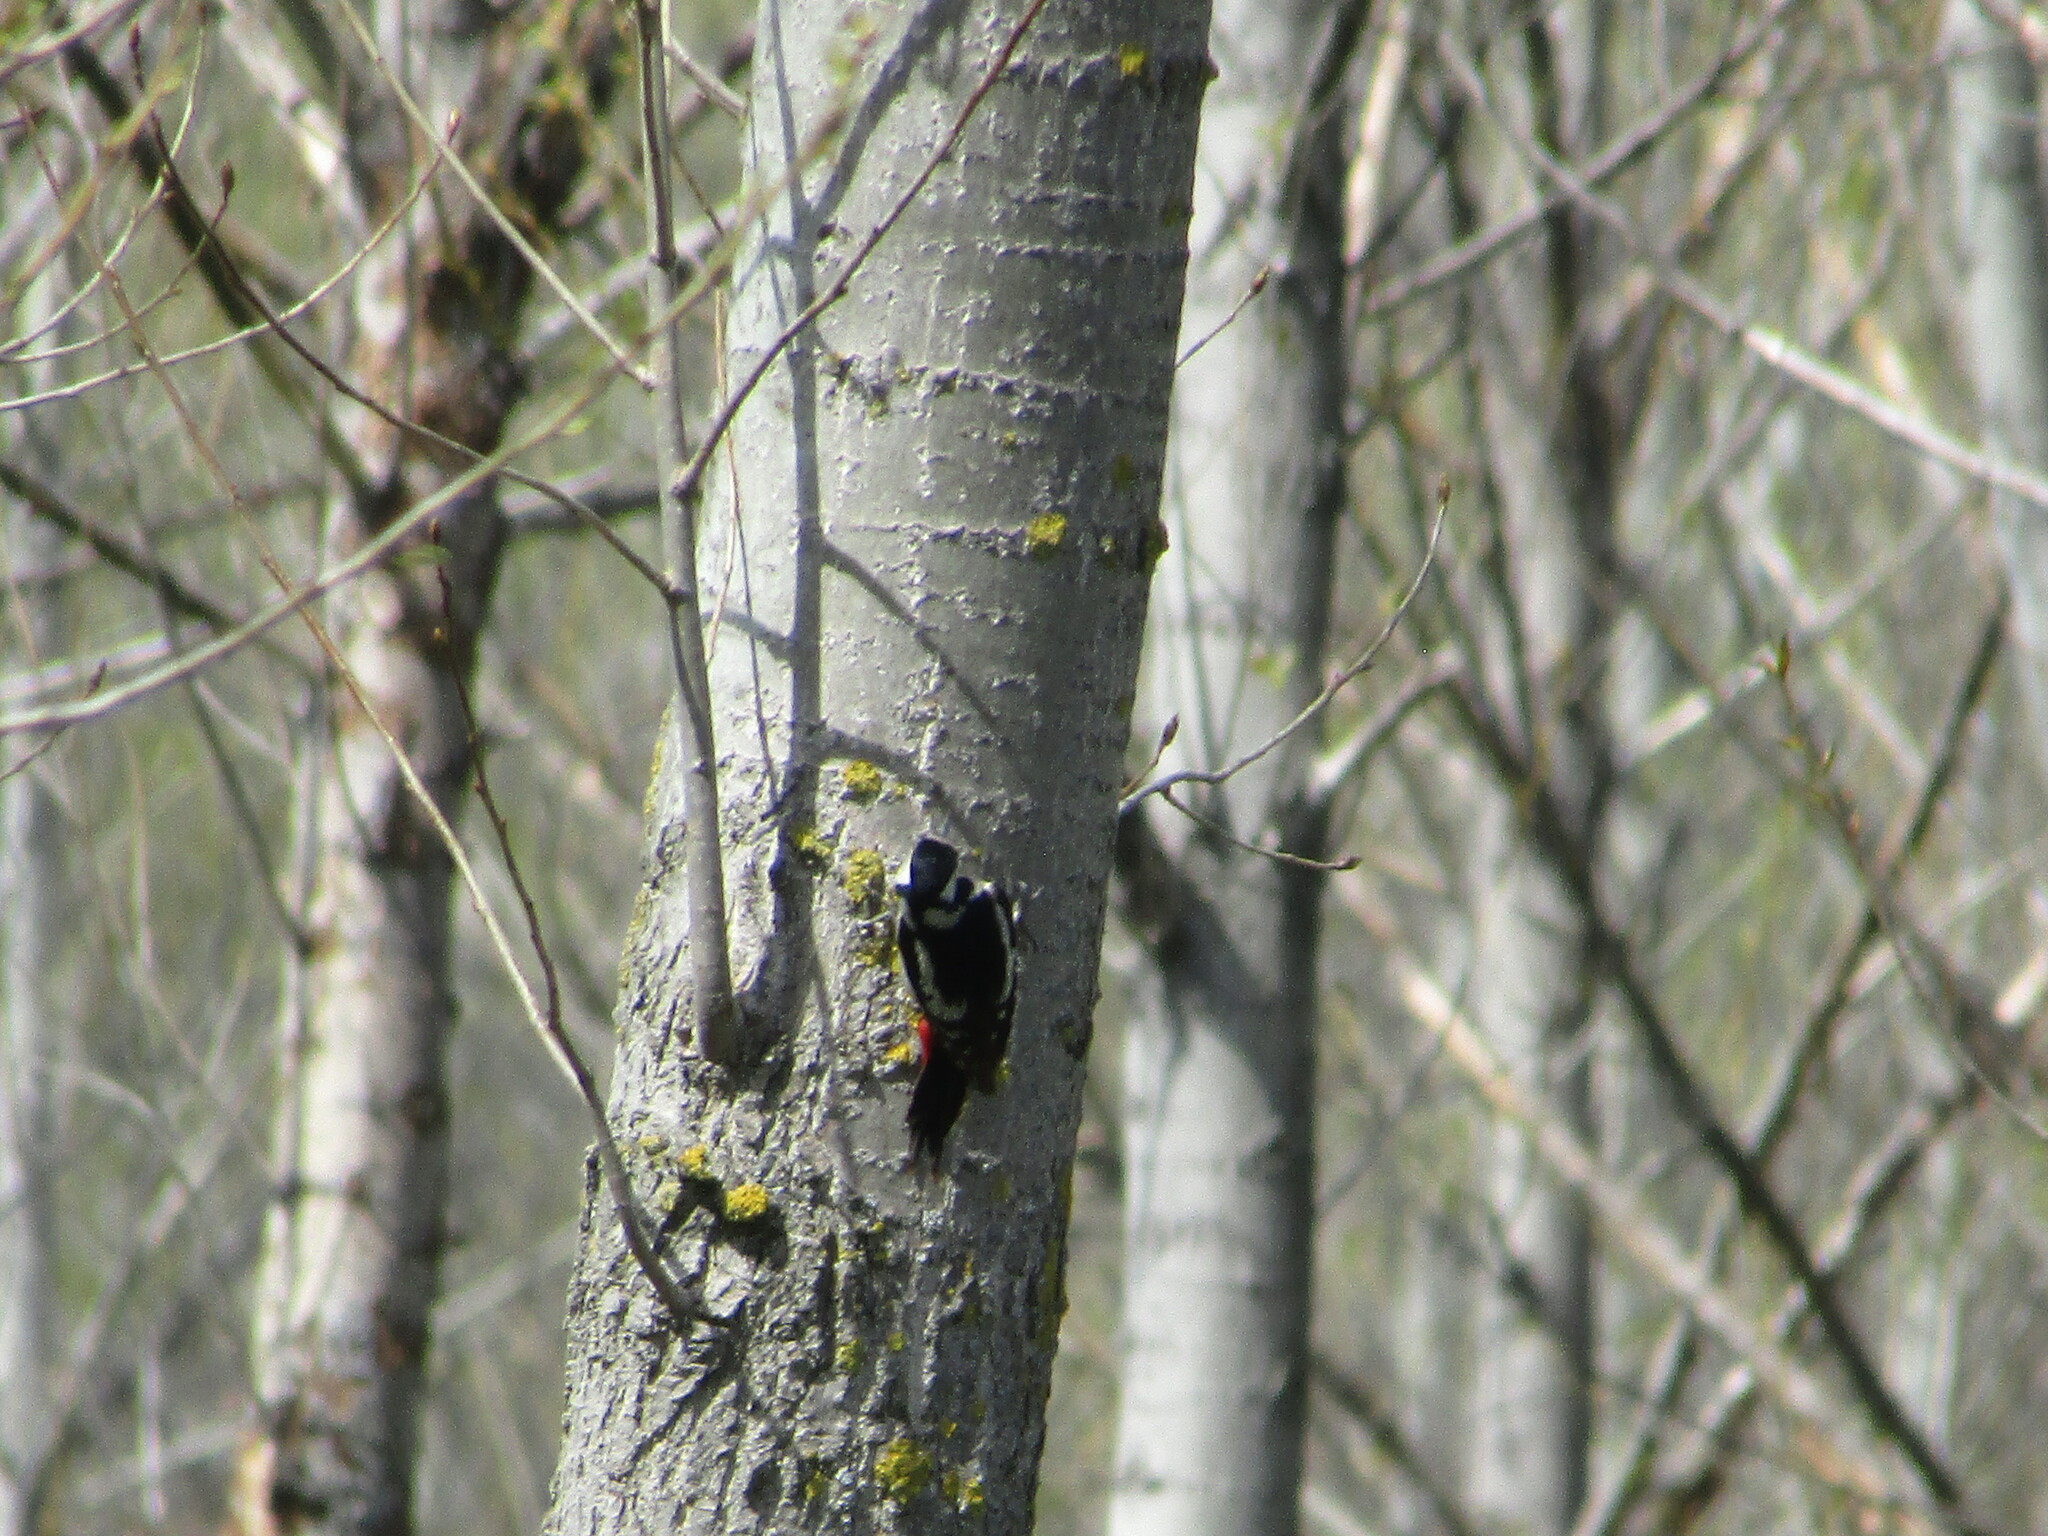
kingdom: Animalia
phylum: Chordata
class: Aves
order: Piciformes
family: Picidae
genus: Dendrocopos
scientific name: Dendrocopos major
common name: Great spotted woodpecker
